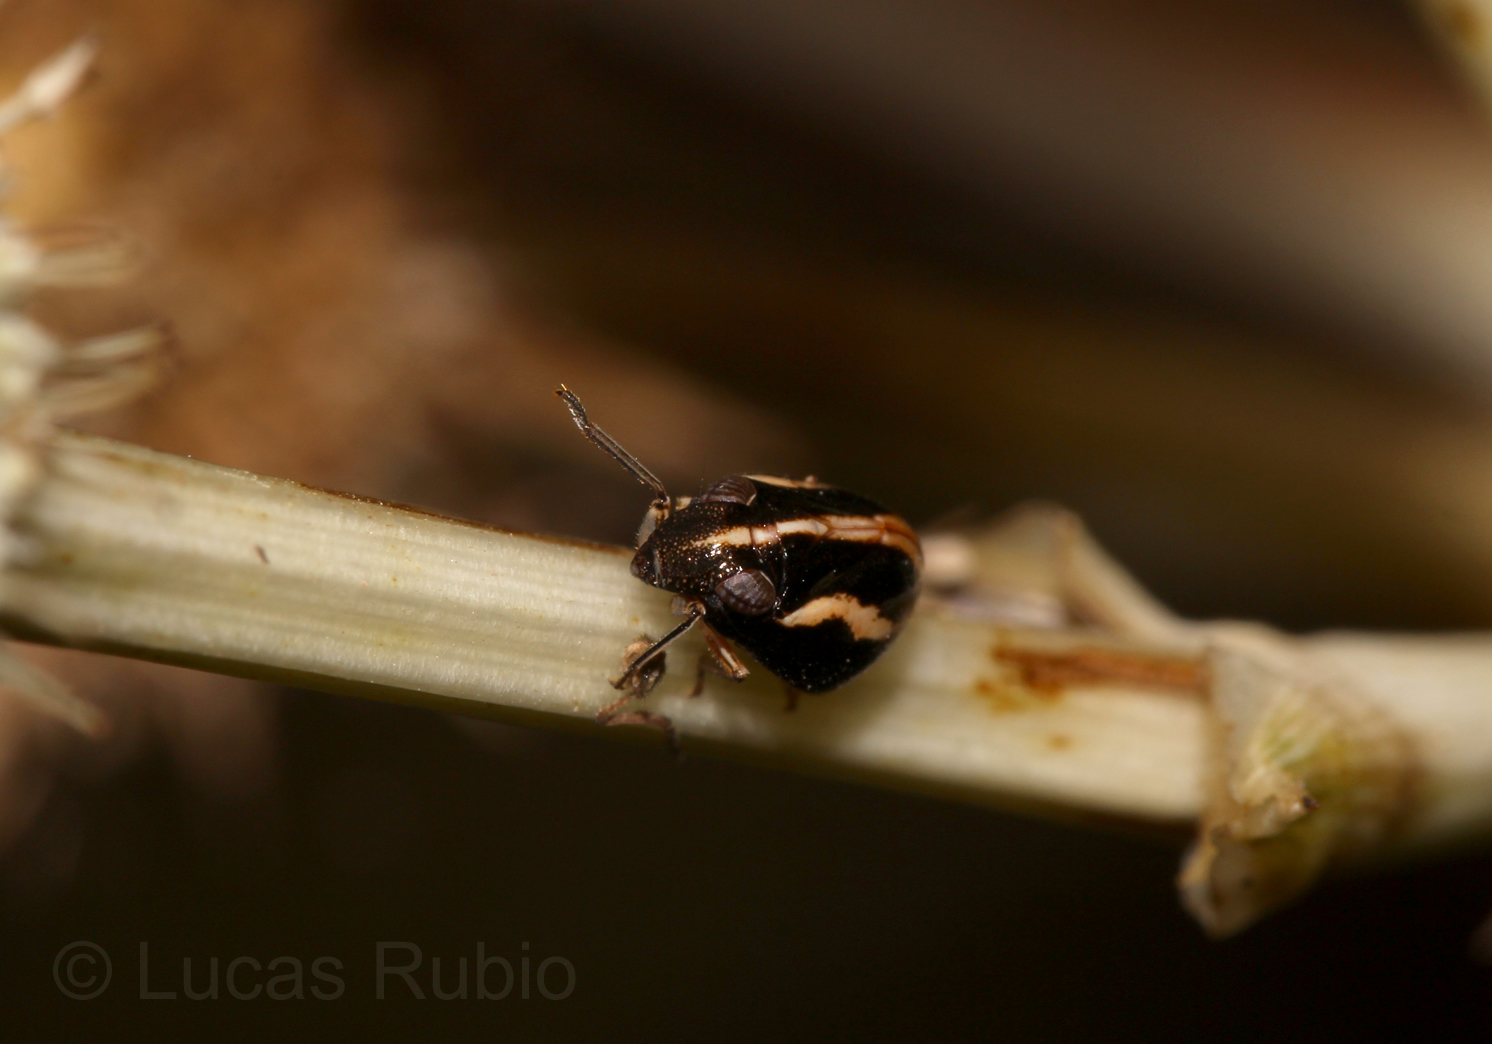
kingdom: Animalia
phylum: Arthropoda
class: Insecta
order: Hemiptera
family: Issidae
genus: Argepara
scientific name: Argepara lyra
